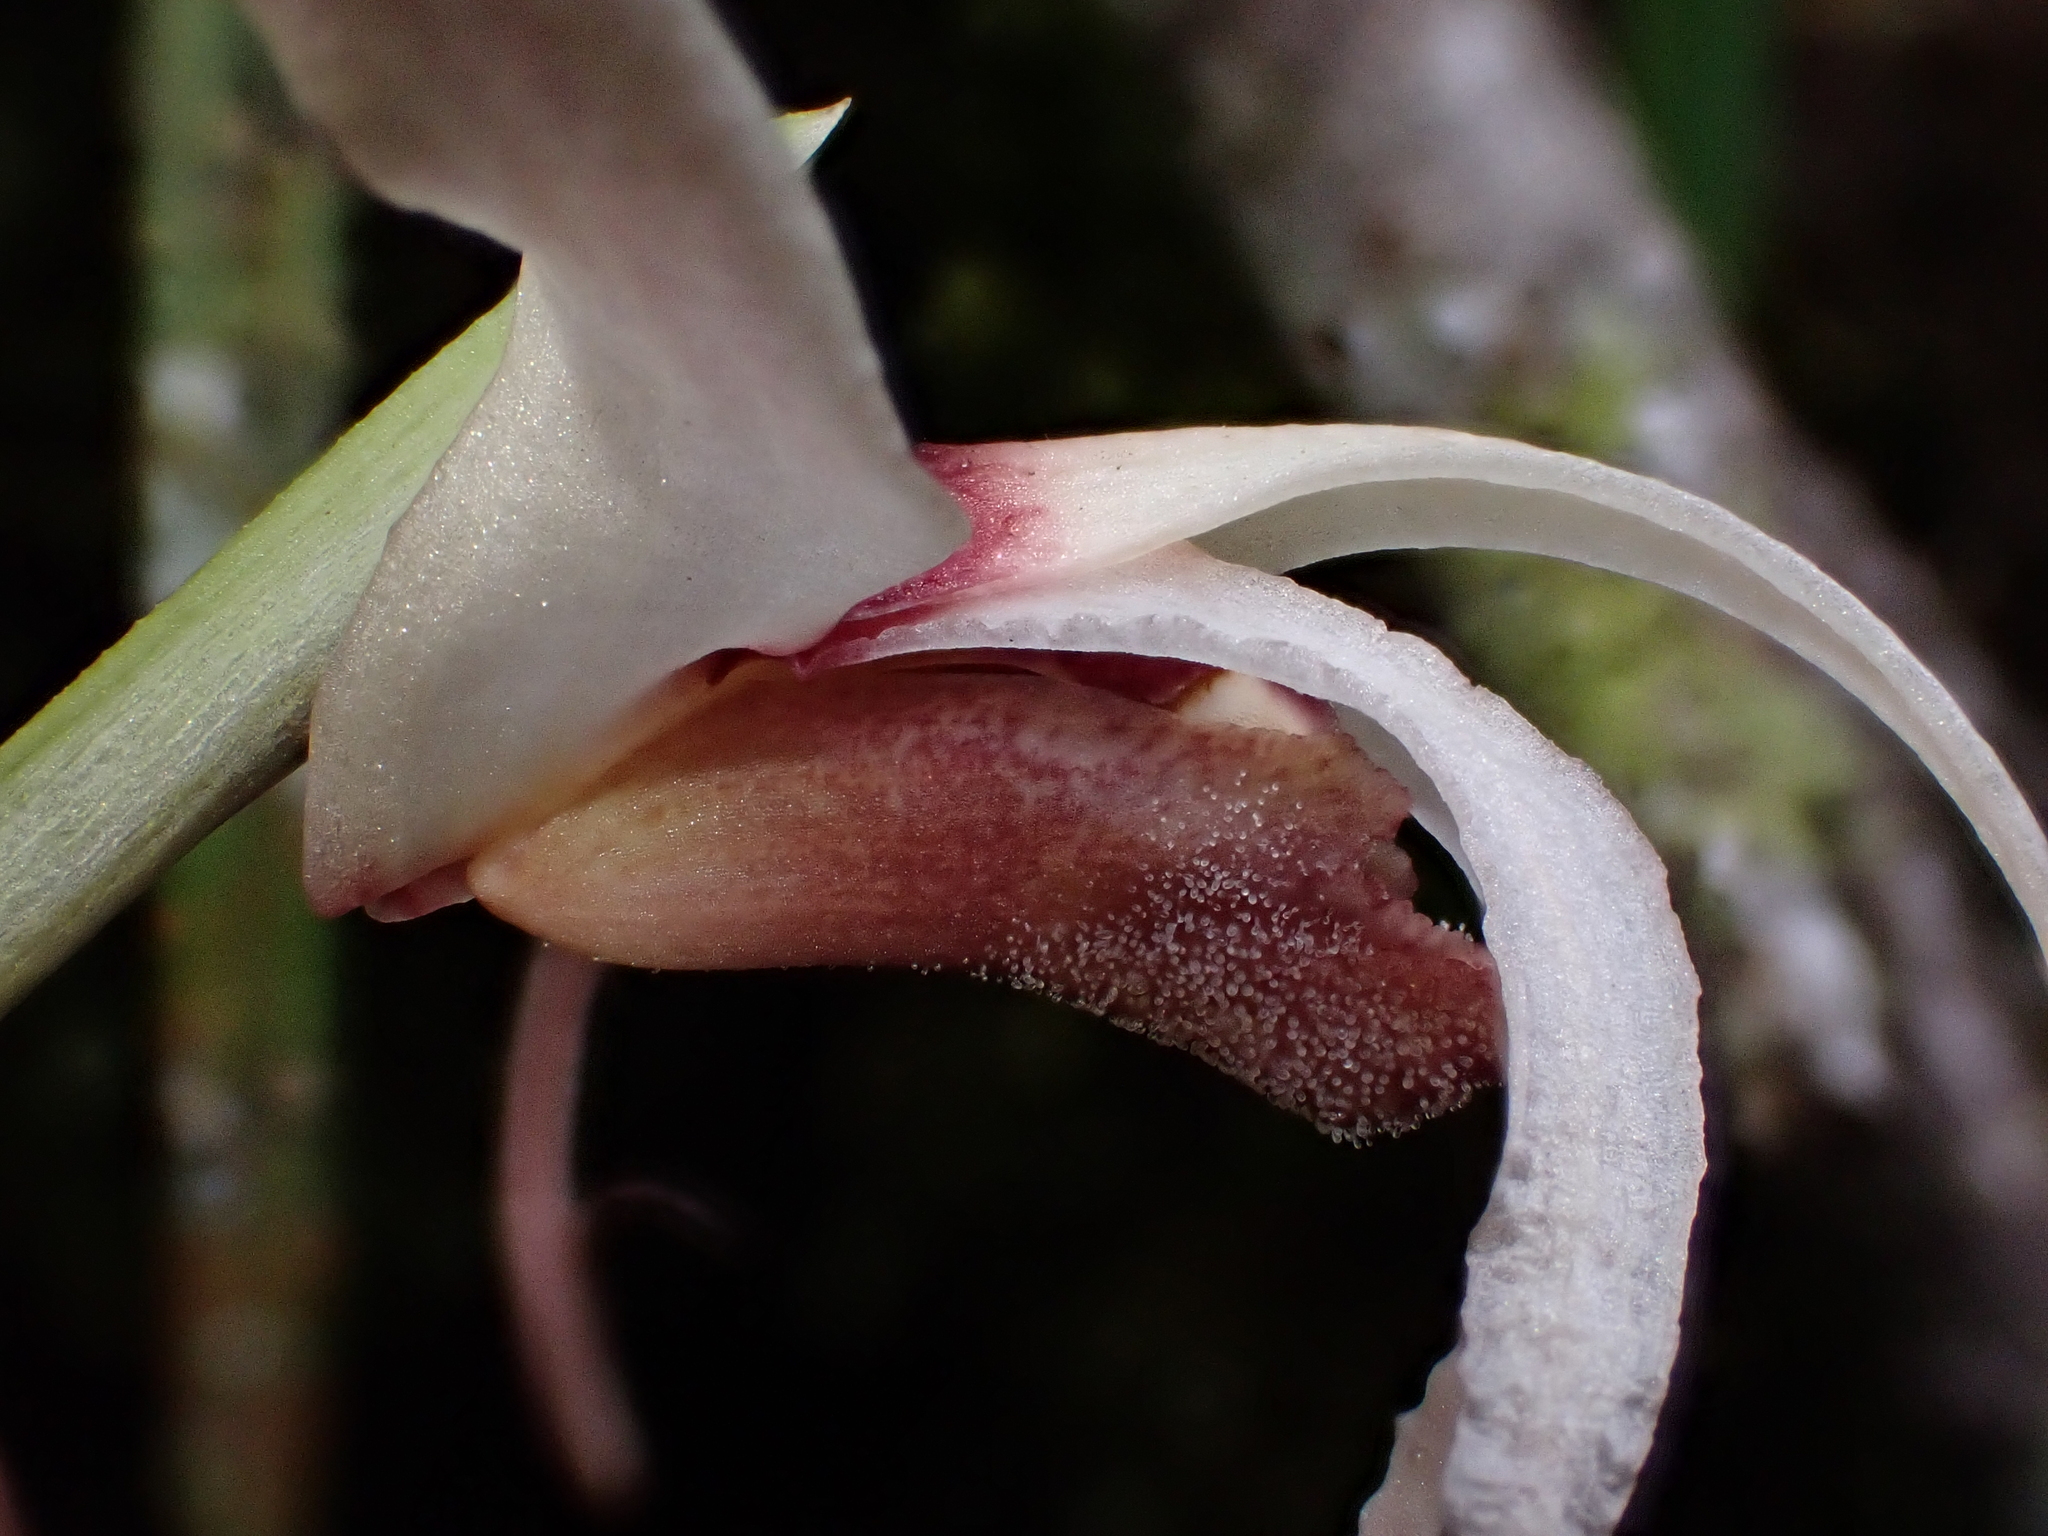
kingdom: Plantae
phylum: Tracheophyta
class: Liliopsida
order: Asparagales
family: Orchidaceae
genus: Maxillaria
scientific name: Maxillaria caucana
